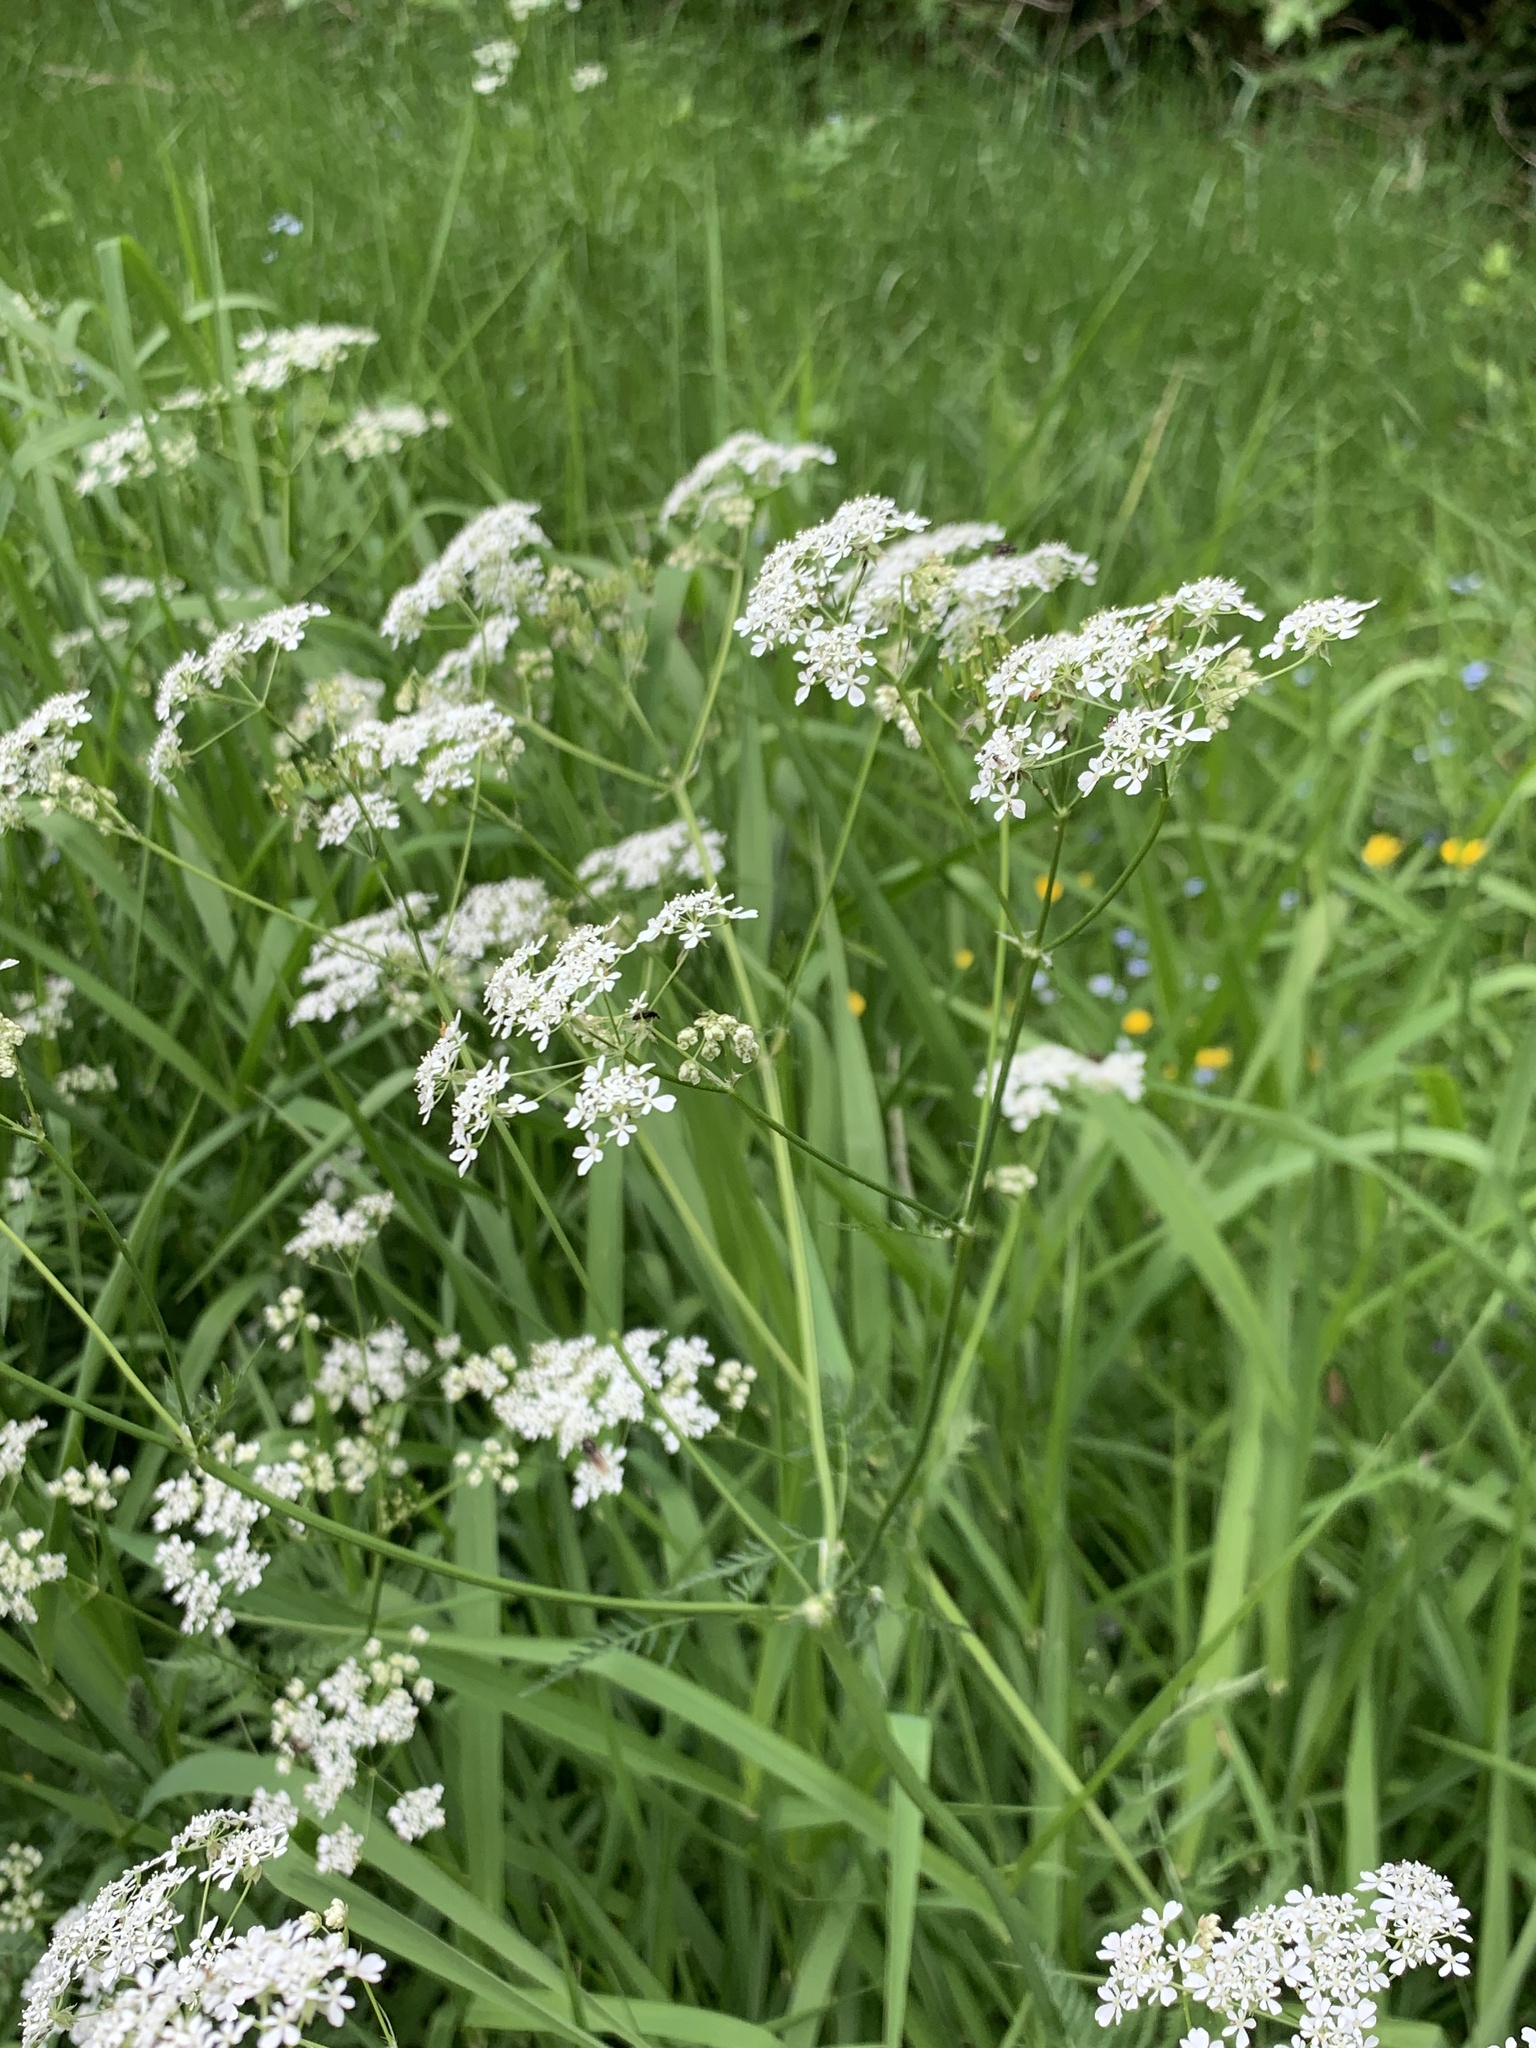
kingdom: Plantae
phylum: Tracheophyta
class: Magnoliopsida
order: Apiales
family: Apiaceae
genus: Anthriscus
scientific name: Anthriscus sylvestris
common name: Cow parsley
